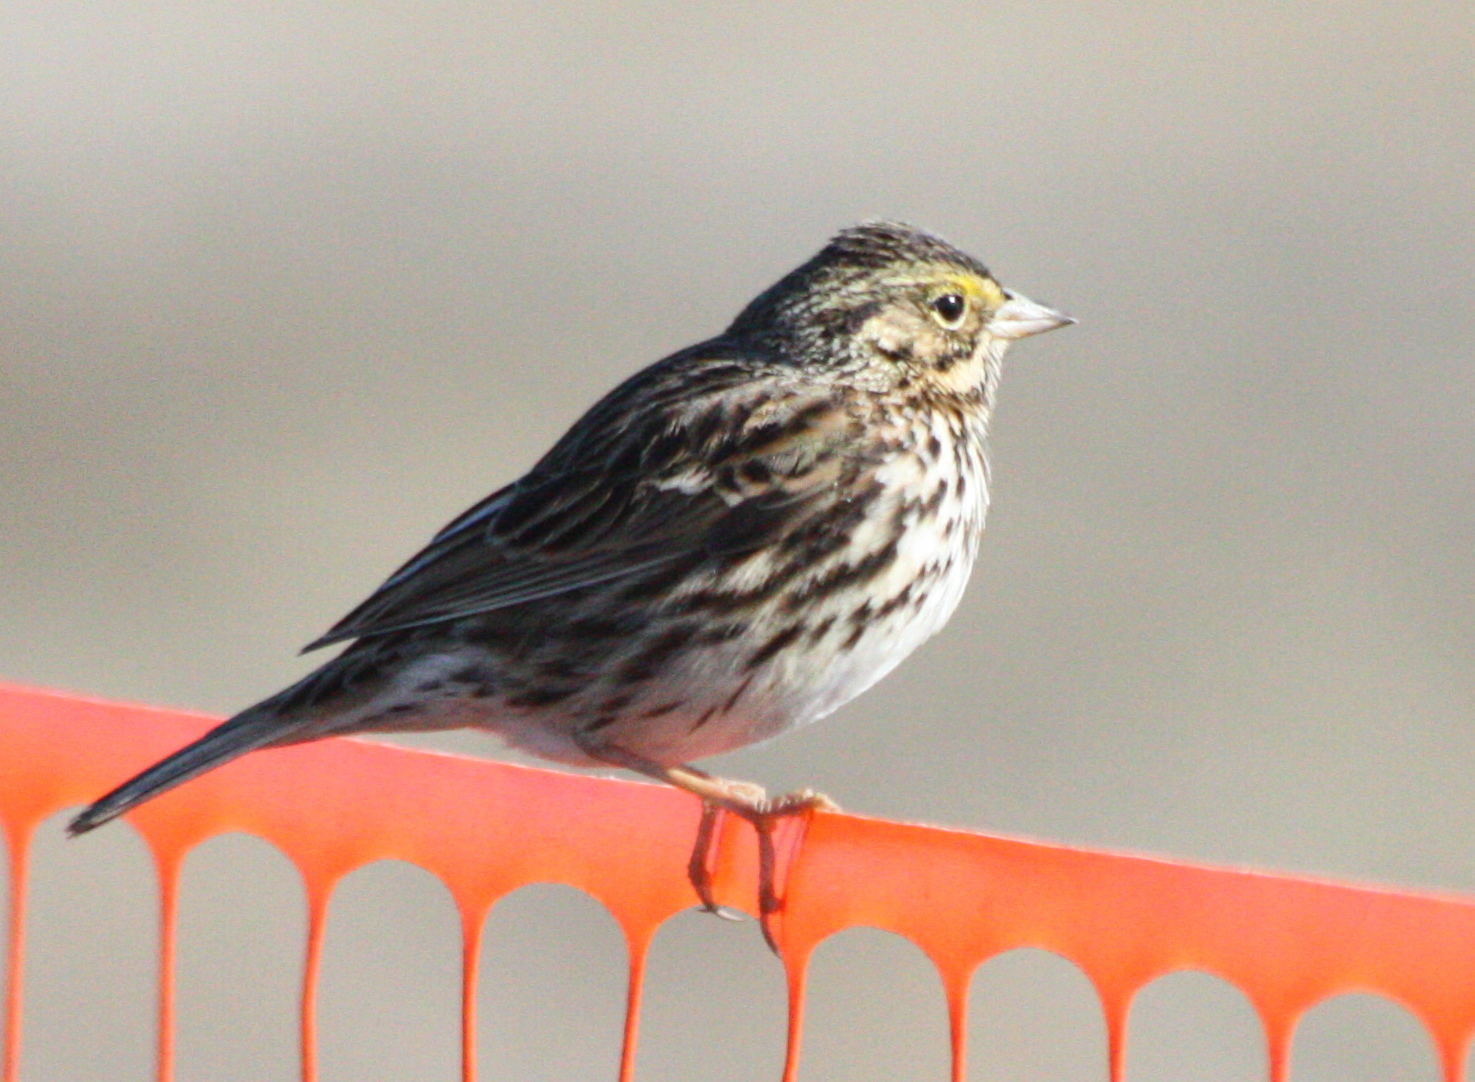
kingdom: Animalia
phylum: Chordata
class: Aves
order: Passeriformes
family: Passerellidae
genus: Passerculus
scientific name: Passerculus sandwichensis
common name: Savannah sparrow
